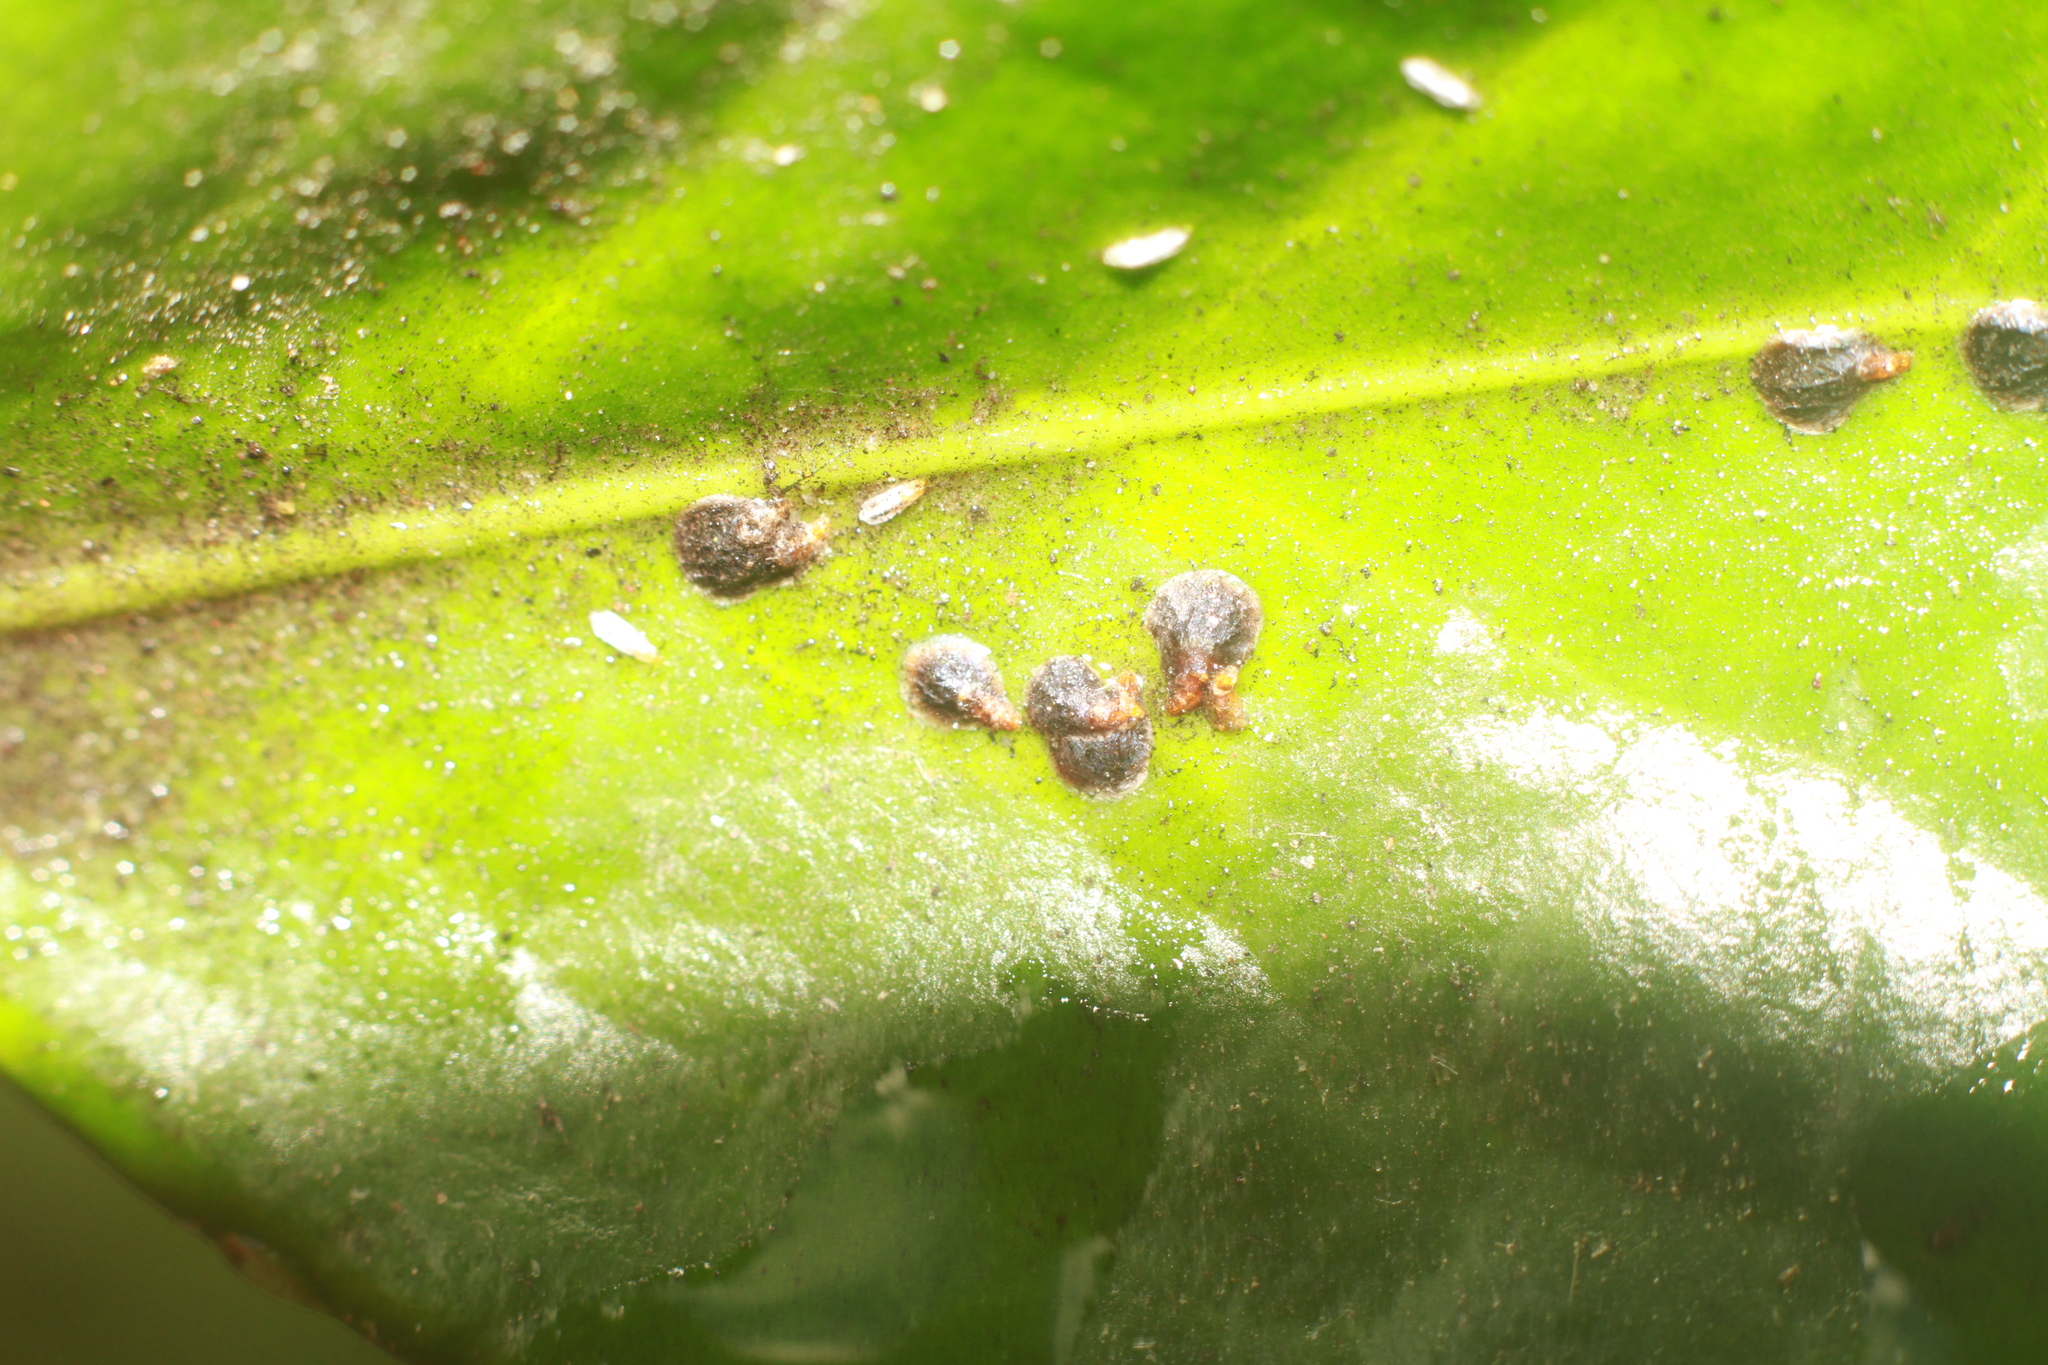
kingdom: Animalia
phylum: Arthropoda
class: Insecta
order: Hemiptera
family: Diaspididae
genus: Unaspis
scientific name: Unaspis euonymi
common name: Euonymus scale
